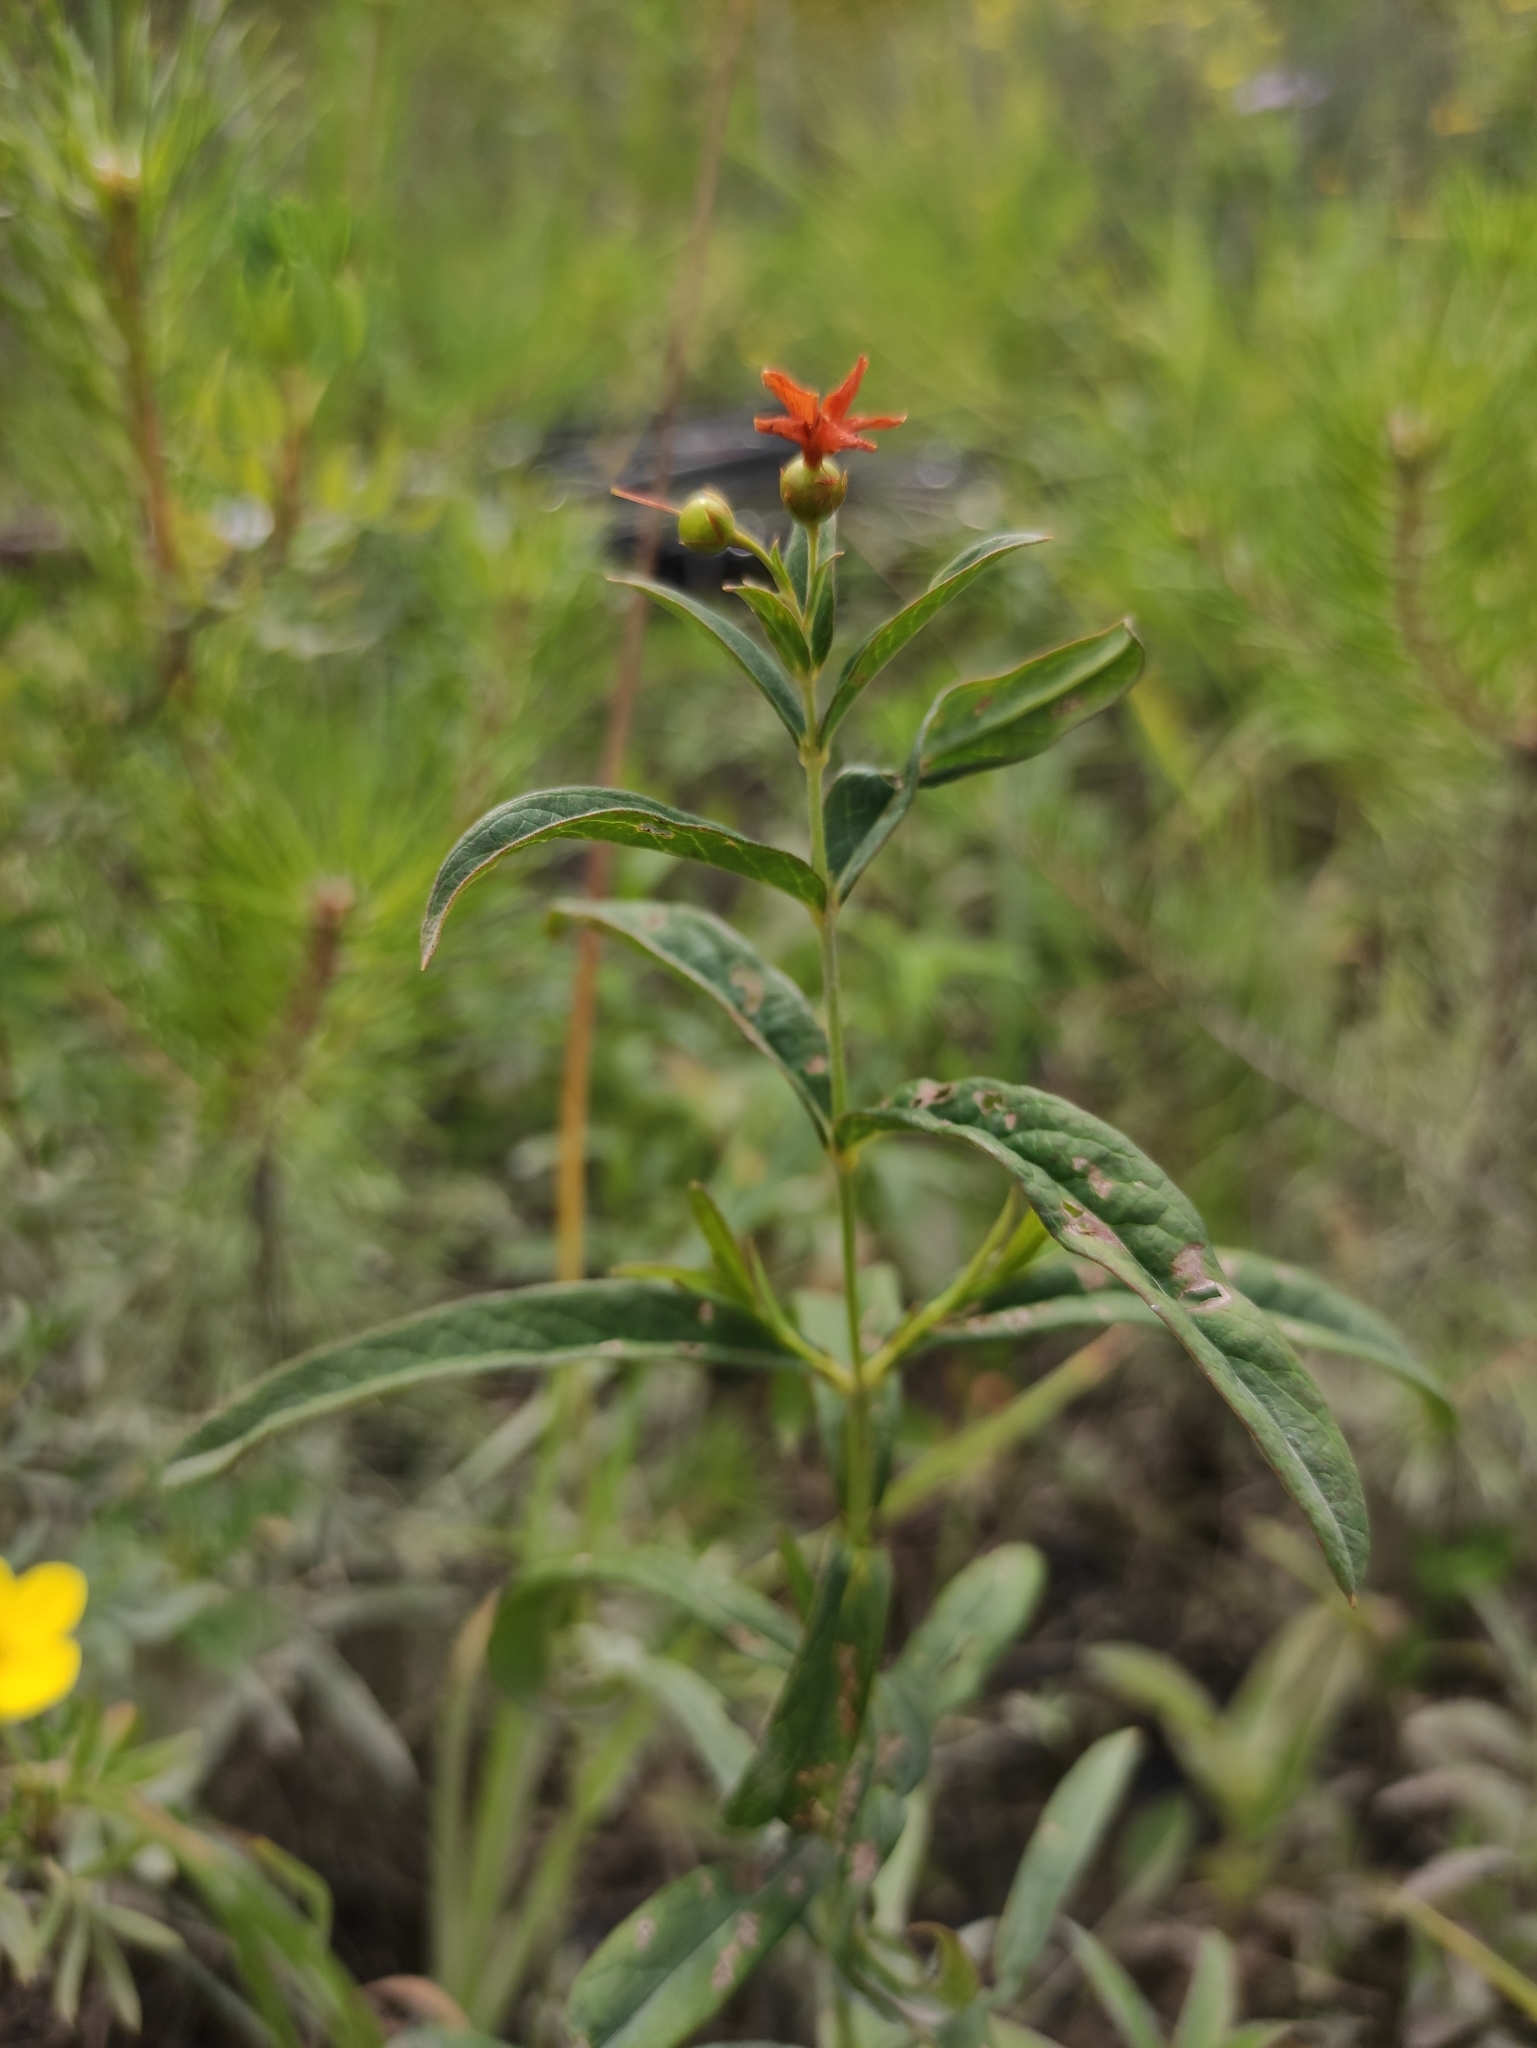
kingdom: Plantae
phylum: Tracheophyta
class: Magnoliopsida
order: Ericales
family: Primulaceae
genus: Lysimachia
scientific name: Lysimachia davurica
